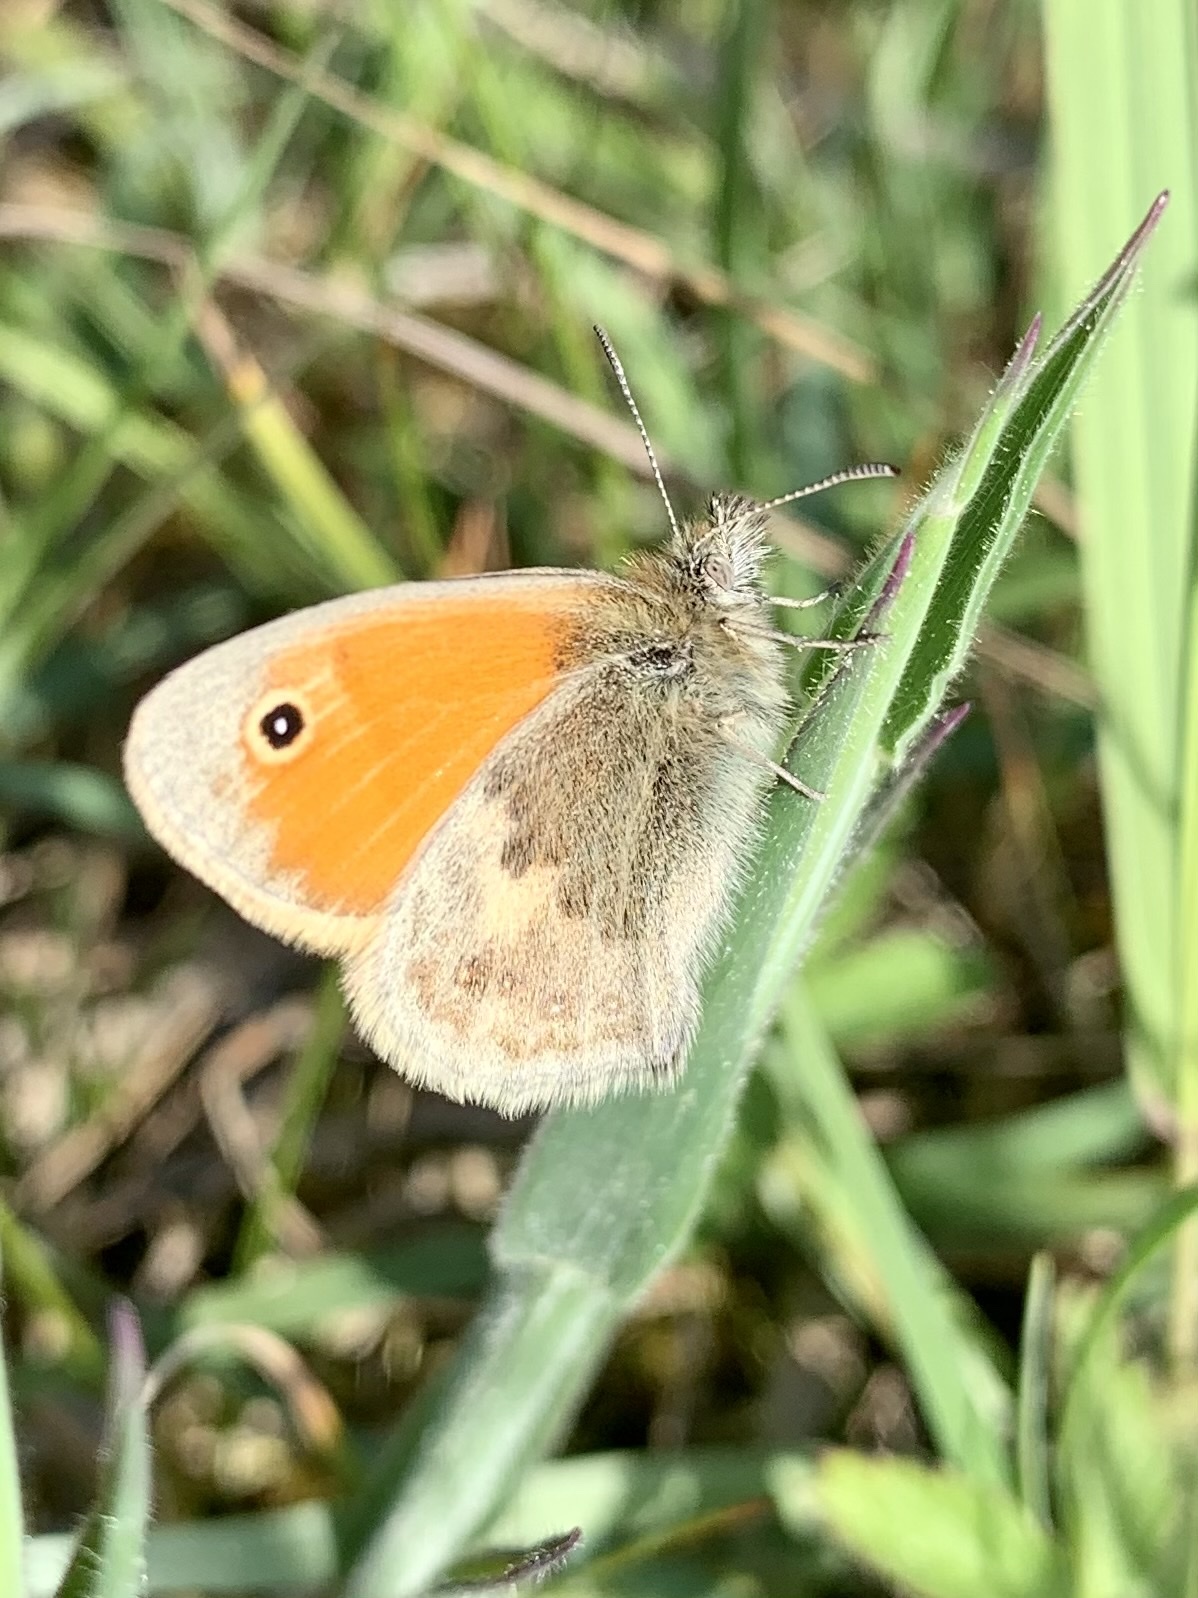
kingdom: Animalia
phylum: Arthropoda
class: Insecta
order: Lepidoptera
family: Nymphalidae
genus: Coenonympha
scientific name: Coenonympha pamphilus
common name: Small heath
